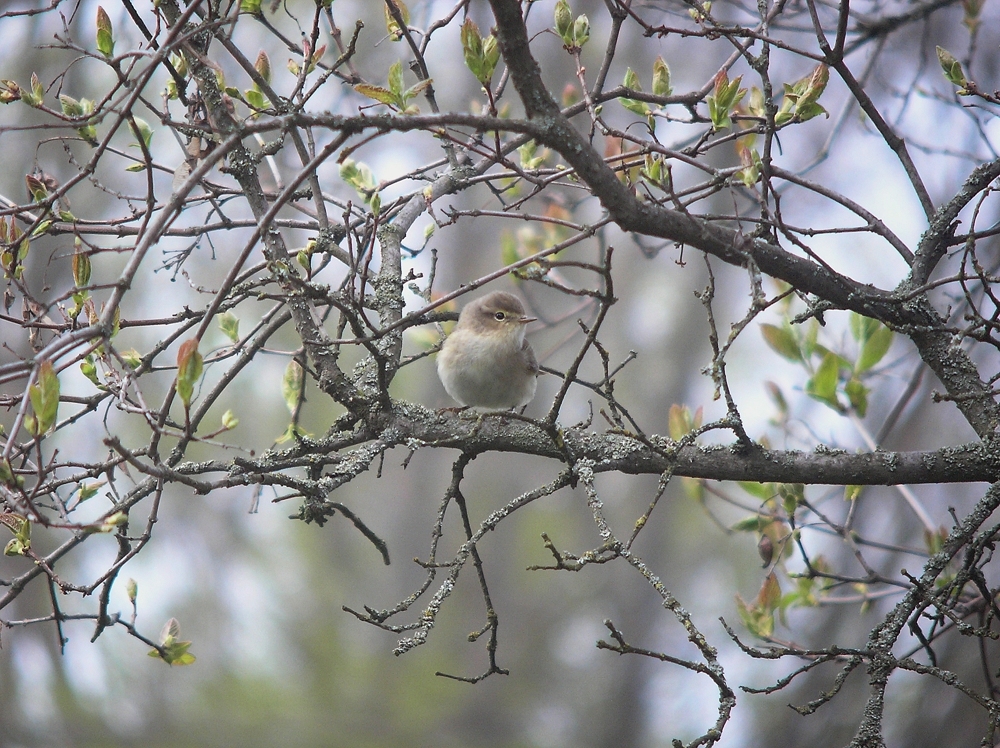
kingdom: Animalia
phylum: Chordata
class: Aves
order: Passeriformes
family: Phylloscopidae
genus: Phylloscopus
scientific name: Phylloscopus collybita
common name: Common chiffchaff
